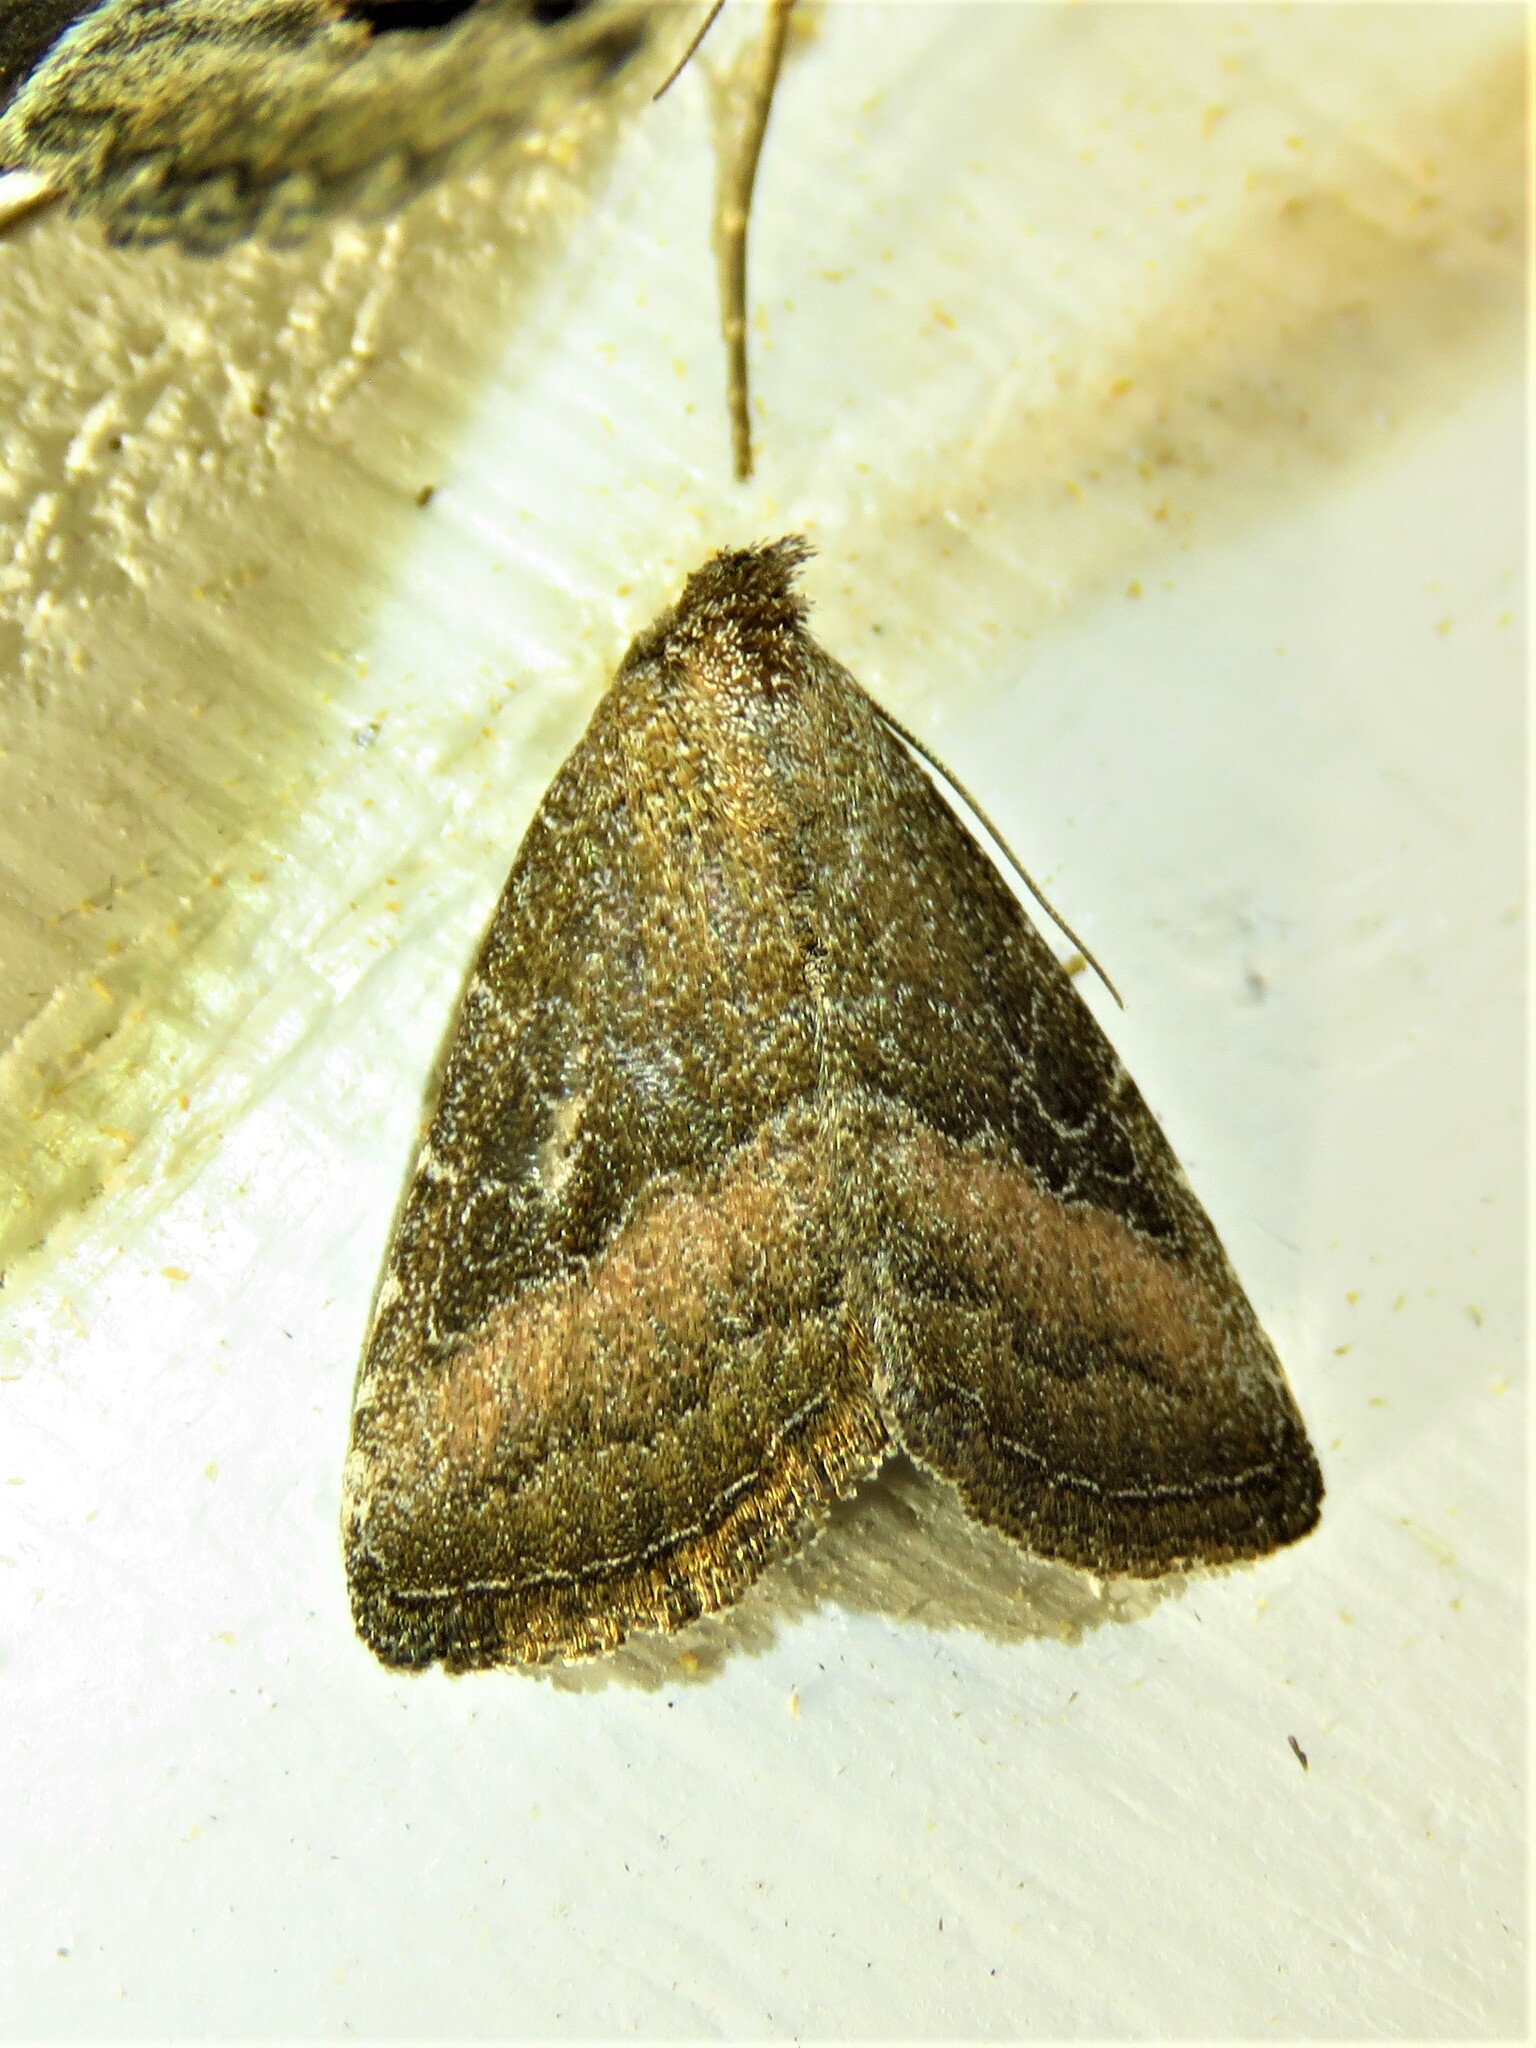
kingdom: Animalia
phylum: Arthropoda
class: Insecta
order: Lepidoptera
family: Noctuidae
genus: Ogdoconta
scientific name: Ogdoconta cinereola
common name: Common pinkband
